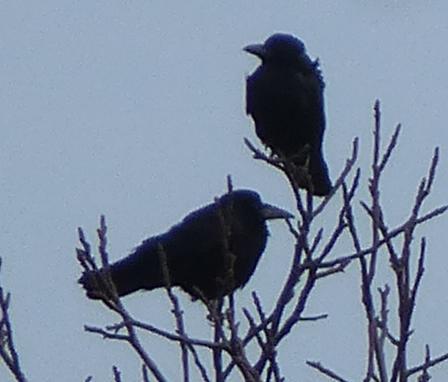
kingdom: Animalia
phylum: Chordata
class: Aves
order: Passeriformes
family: Corvidae
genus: Corvus
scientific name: Corvus frugilegus
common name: Rook
